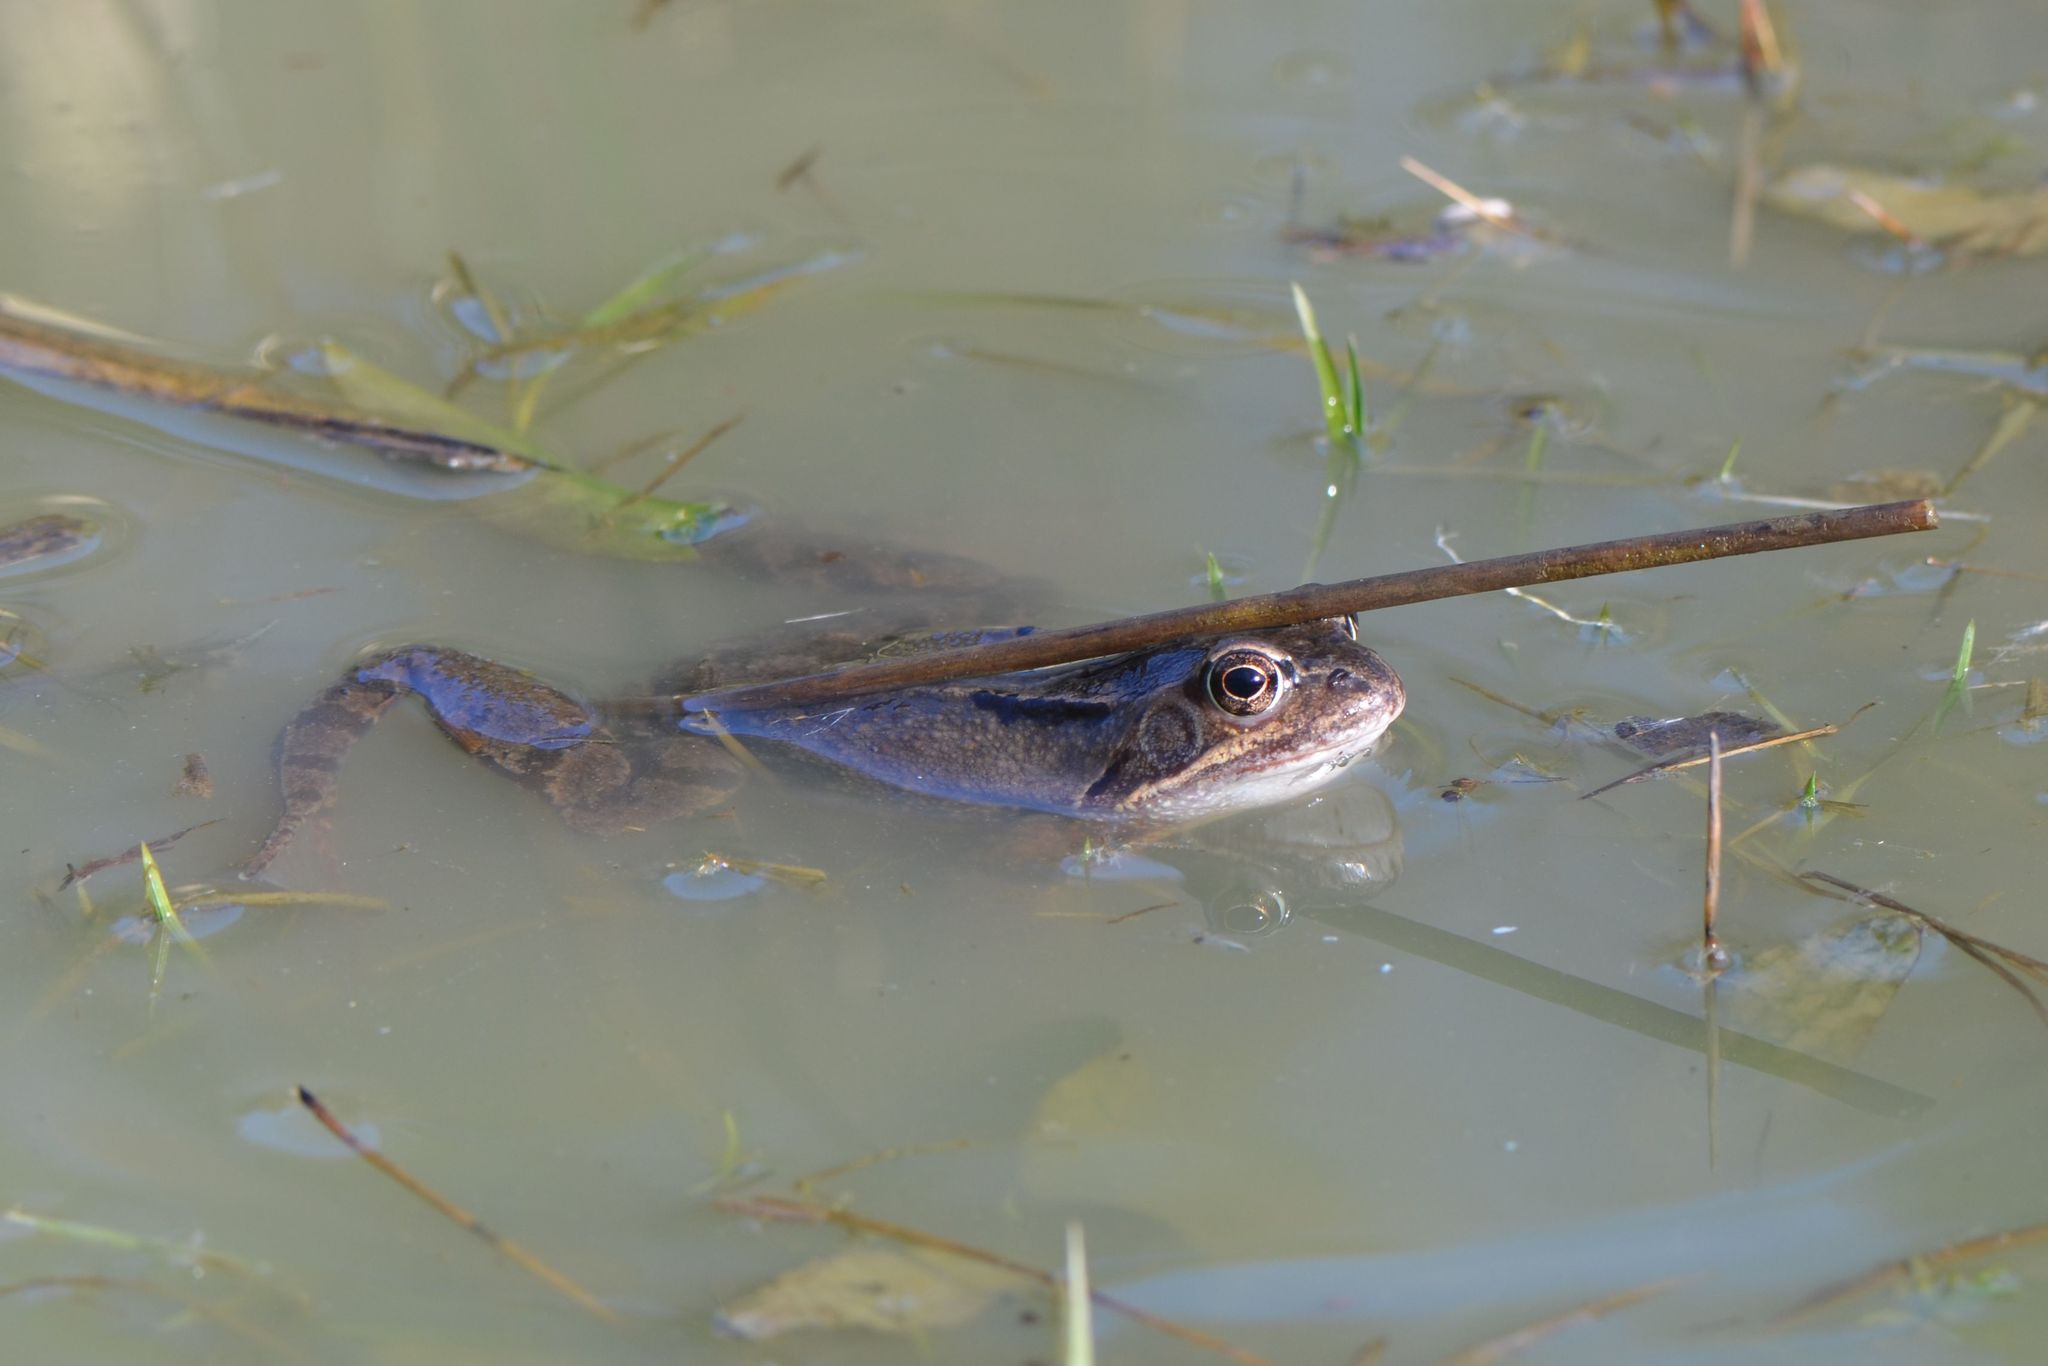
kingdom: Animalia
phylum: Chordata
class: Amphibia
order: Anura
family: Ranidae
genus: Rana
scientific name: Rana temporaria
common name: Common frog
